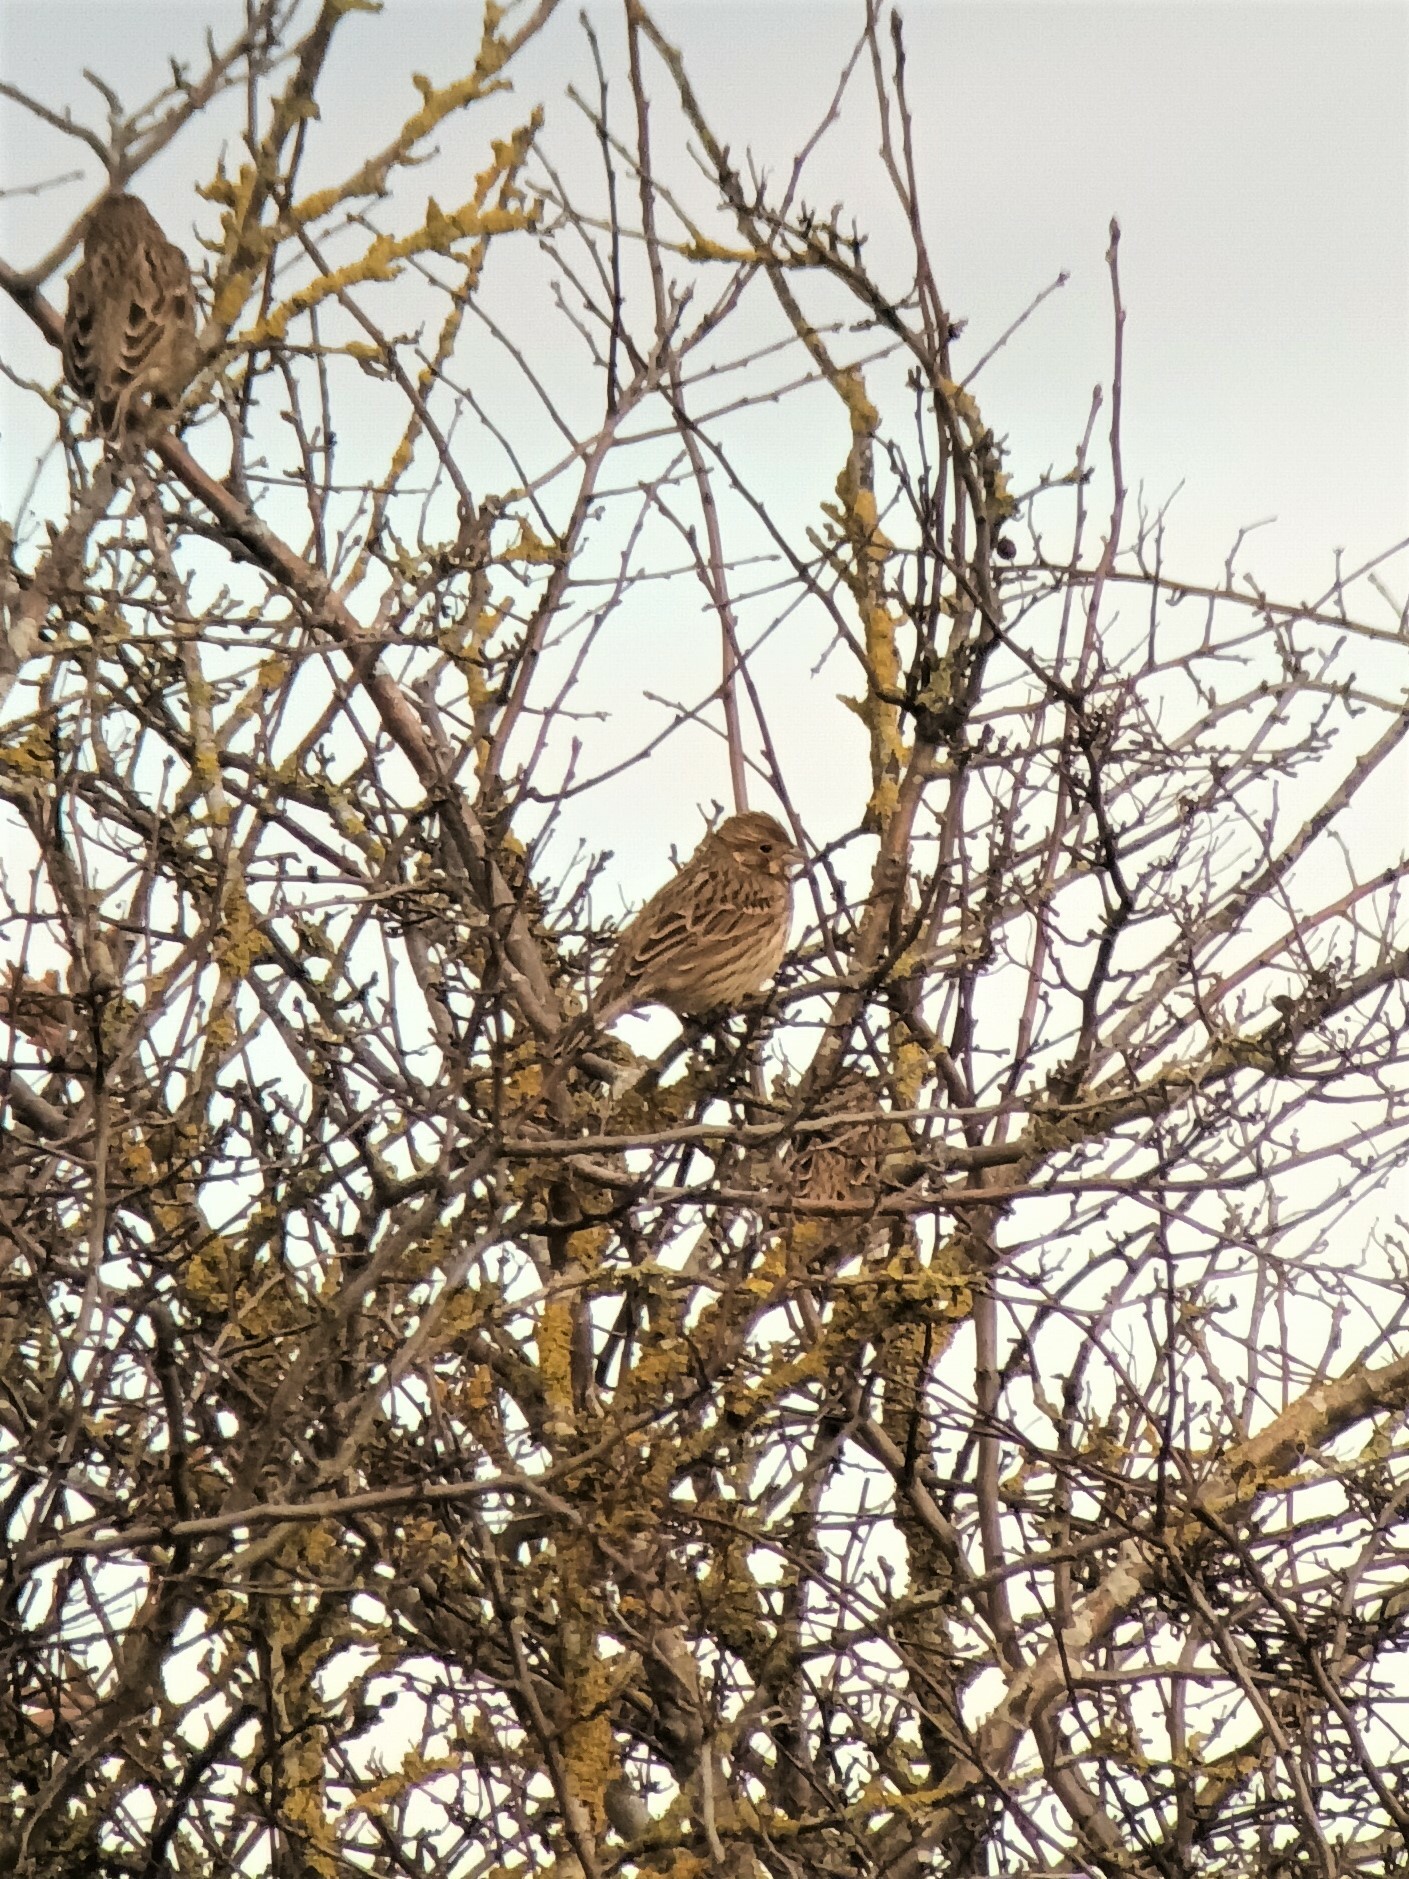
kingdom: Animalia
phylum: Chordata
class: Aves
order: Passeriformes
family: Emberizidae
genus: Emberiza
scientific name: Emberiza calandra
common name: Corn bunting
